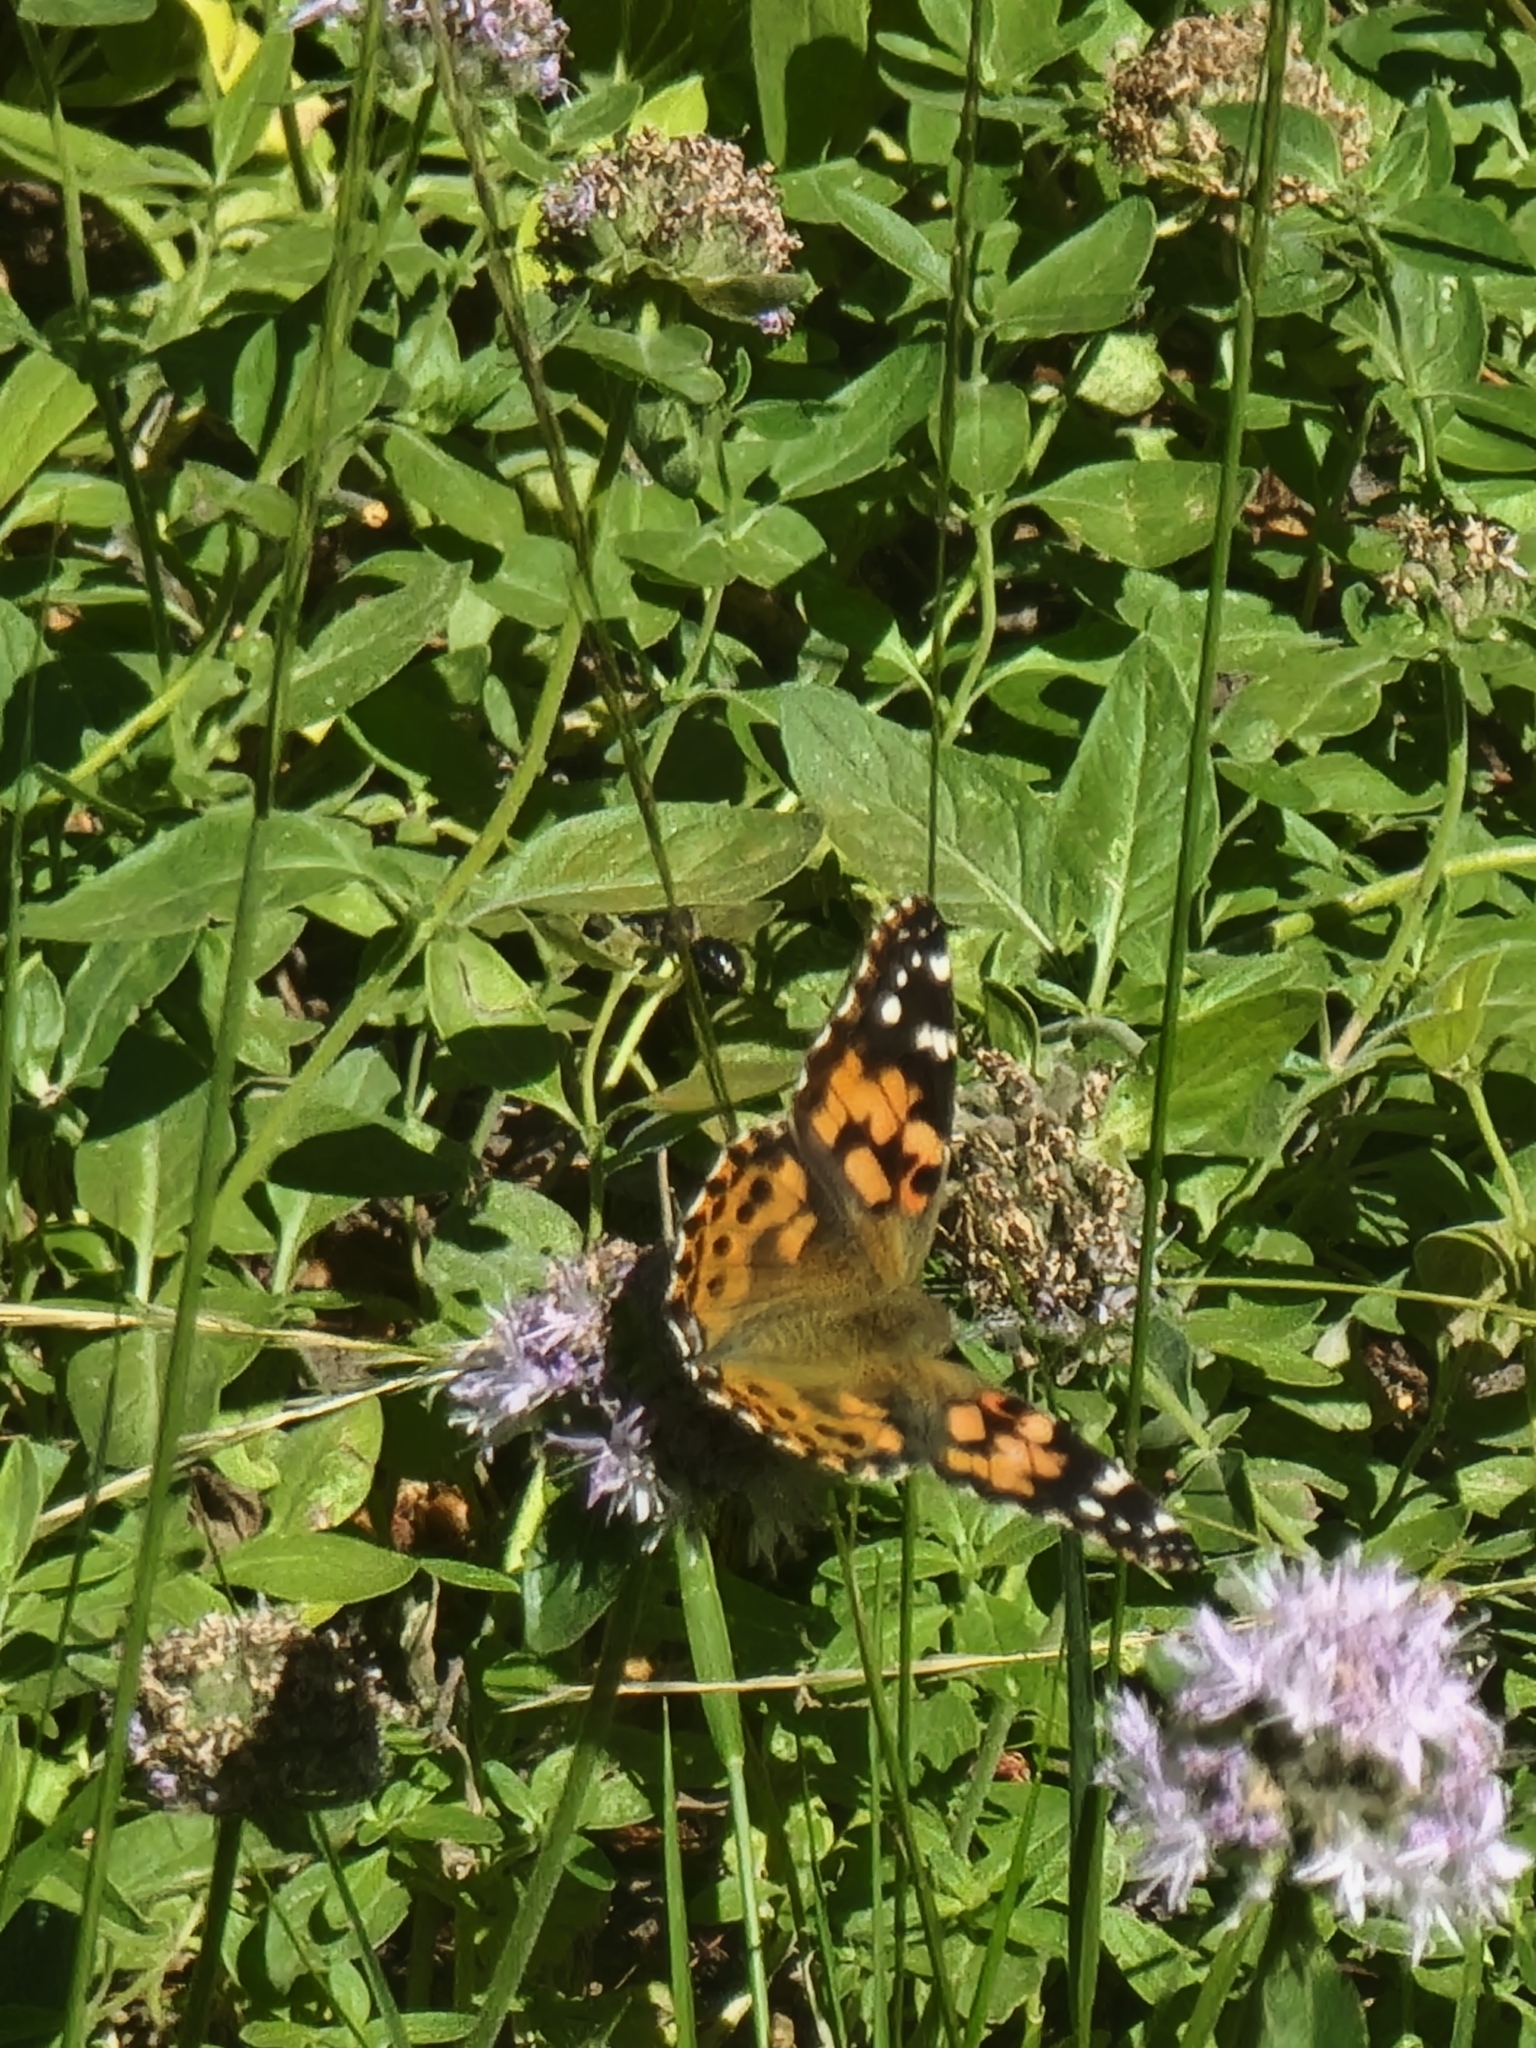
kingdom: Animalia
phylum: Arthropoda
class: Insecta
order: Lepidoptera
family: Nymphalidae
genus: Vanessa
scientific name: Vanessa cardui
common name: Painted lady
